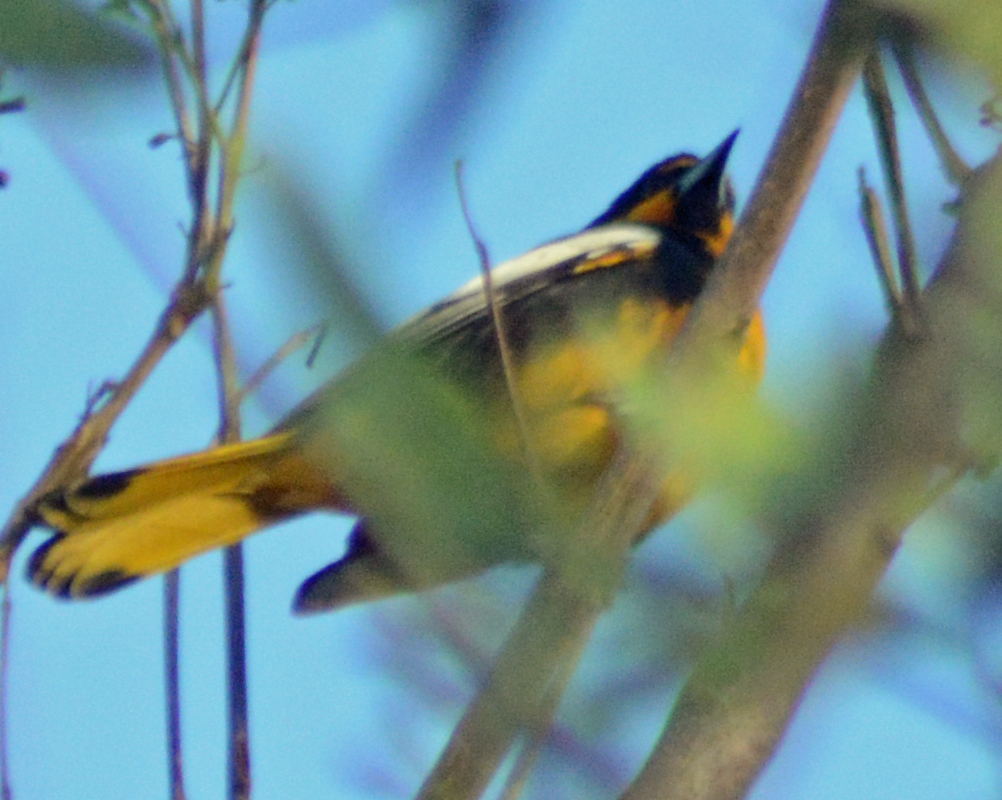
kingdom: Animalia
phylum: Chordata
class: Aves
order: Passeriformes
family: Icteridae
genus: Icterus
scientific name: Icterus abeillei
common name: Black-backed oriole
